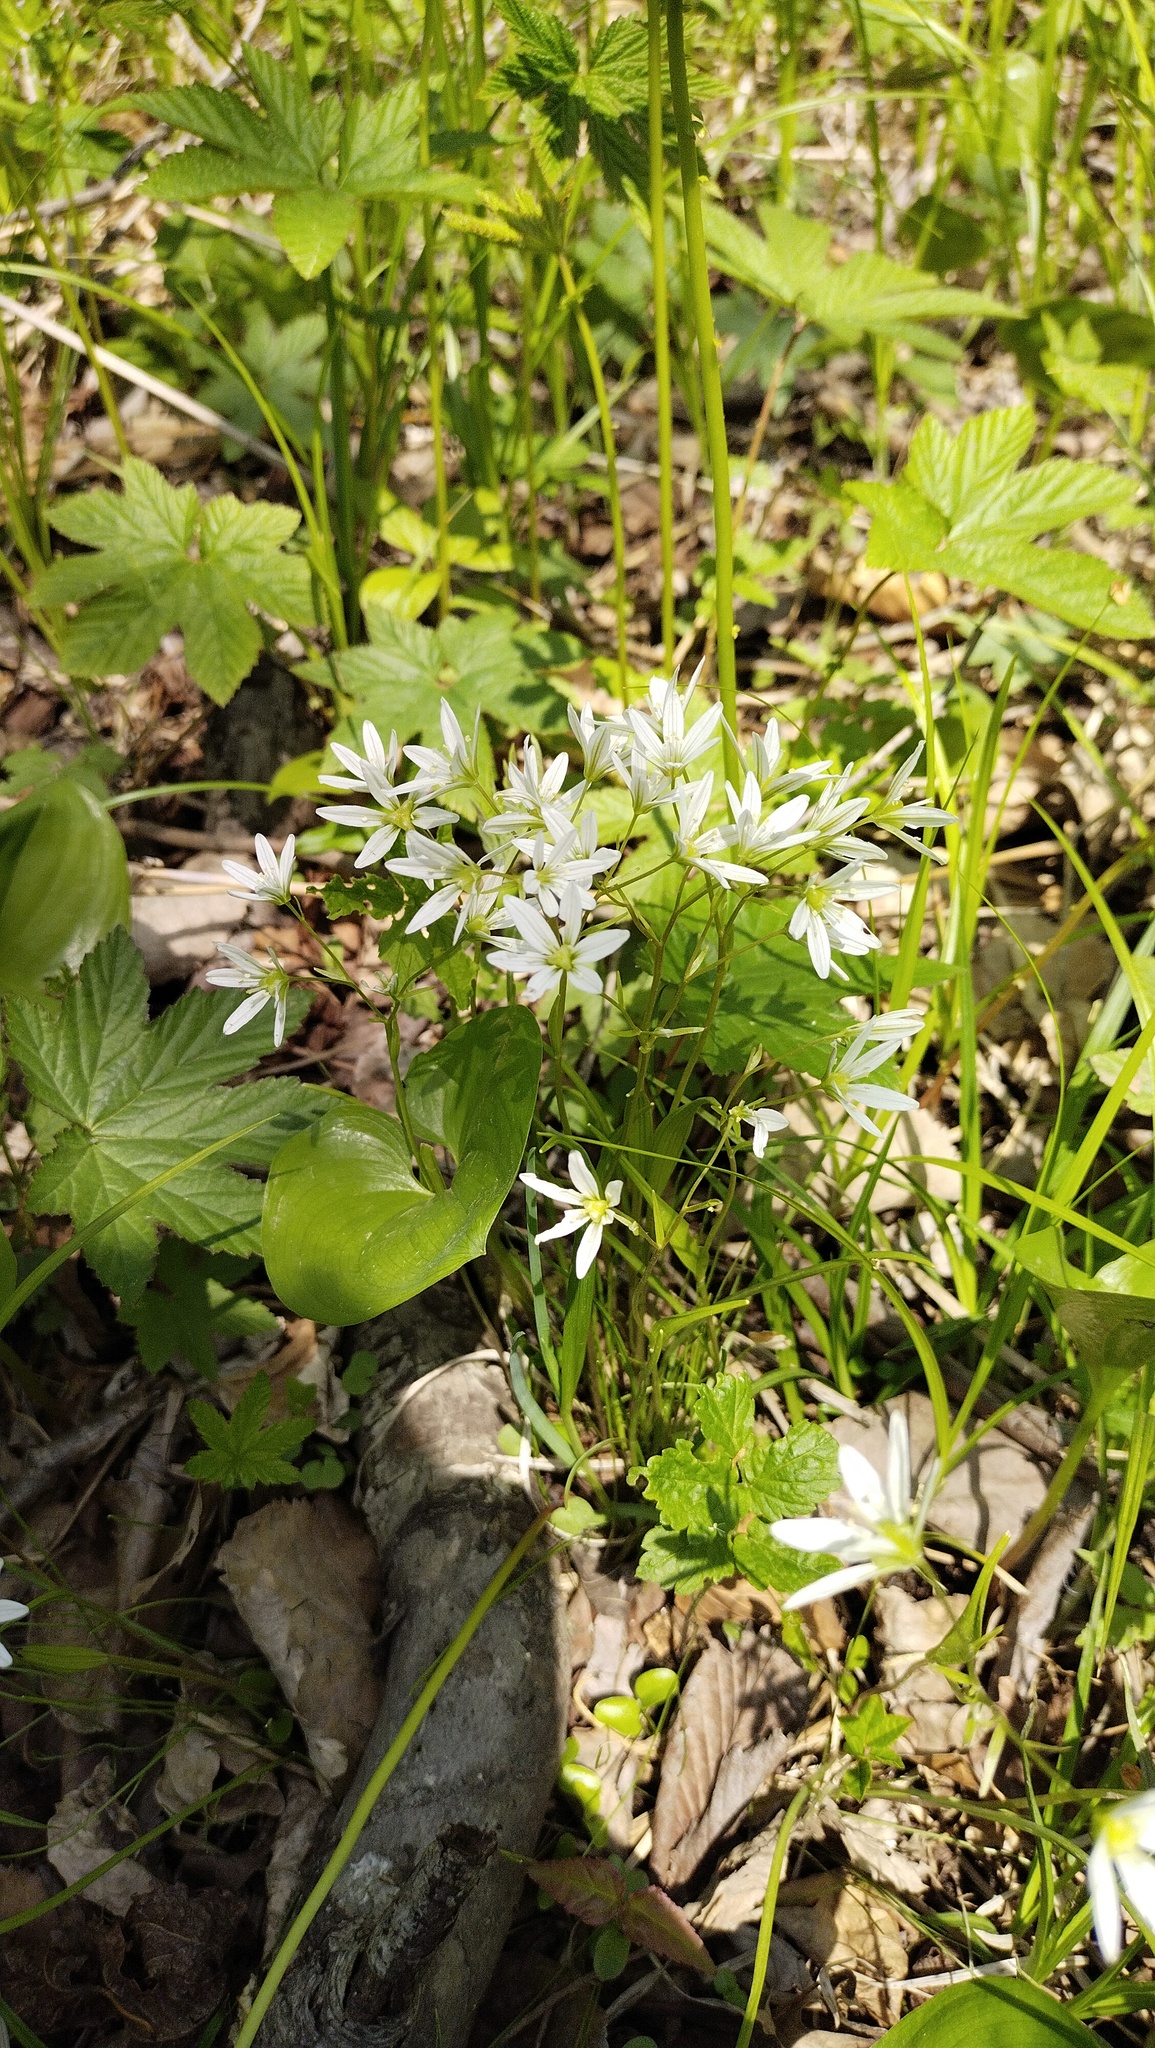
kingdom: Plantae
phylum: Tracheophyta
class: Liliopsida
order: Liliales
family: Liliaceae
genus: Gagea
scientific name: Gagea triflora
